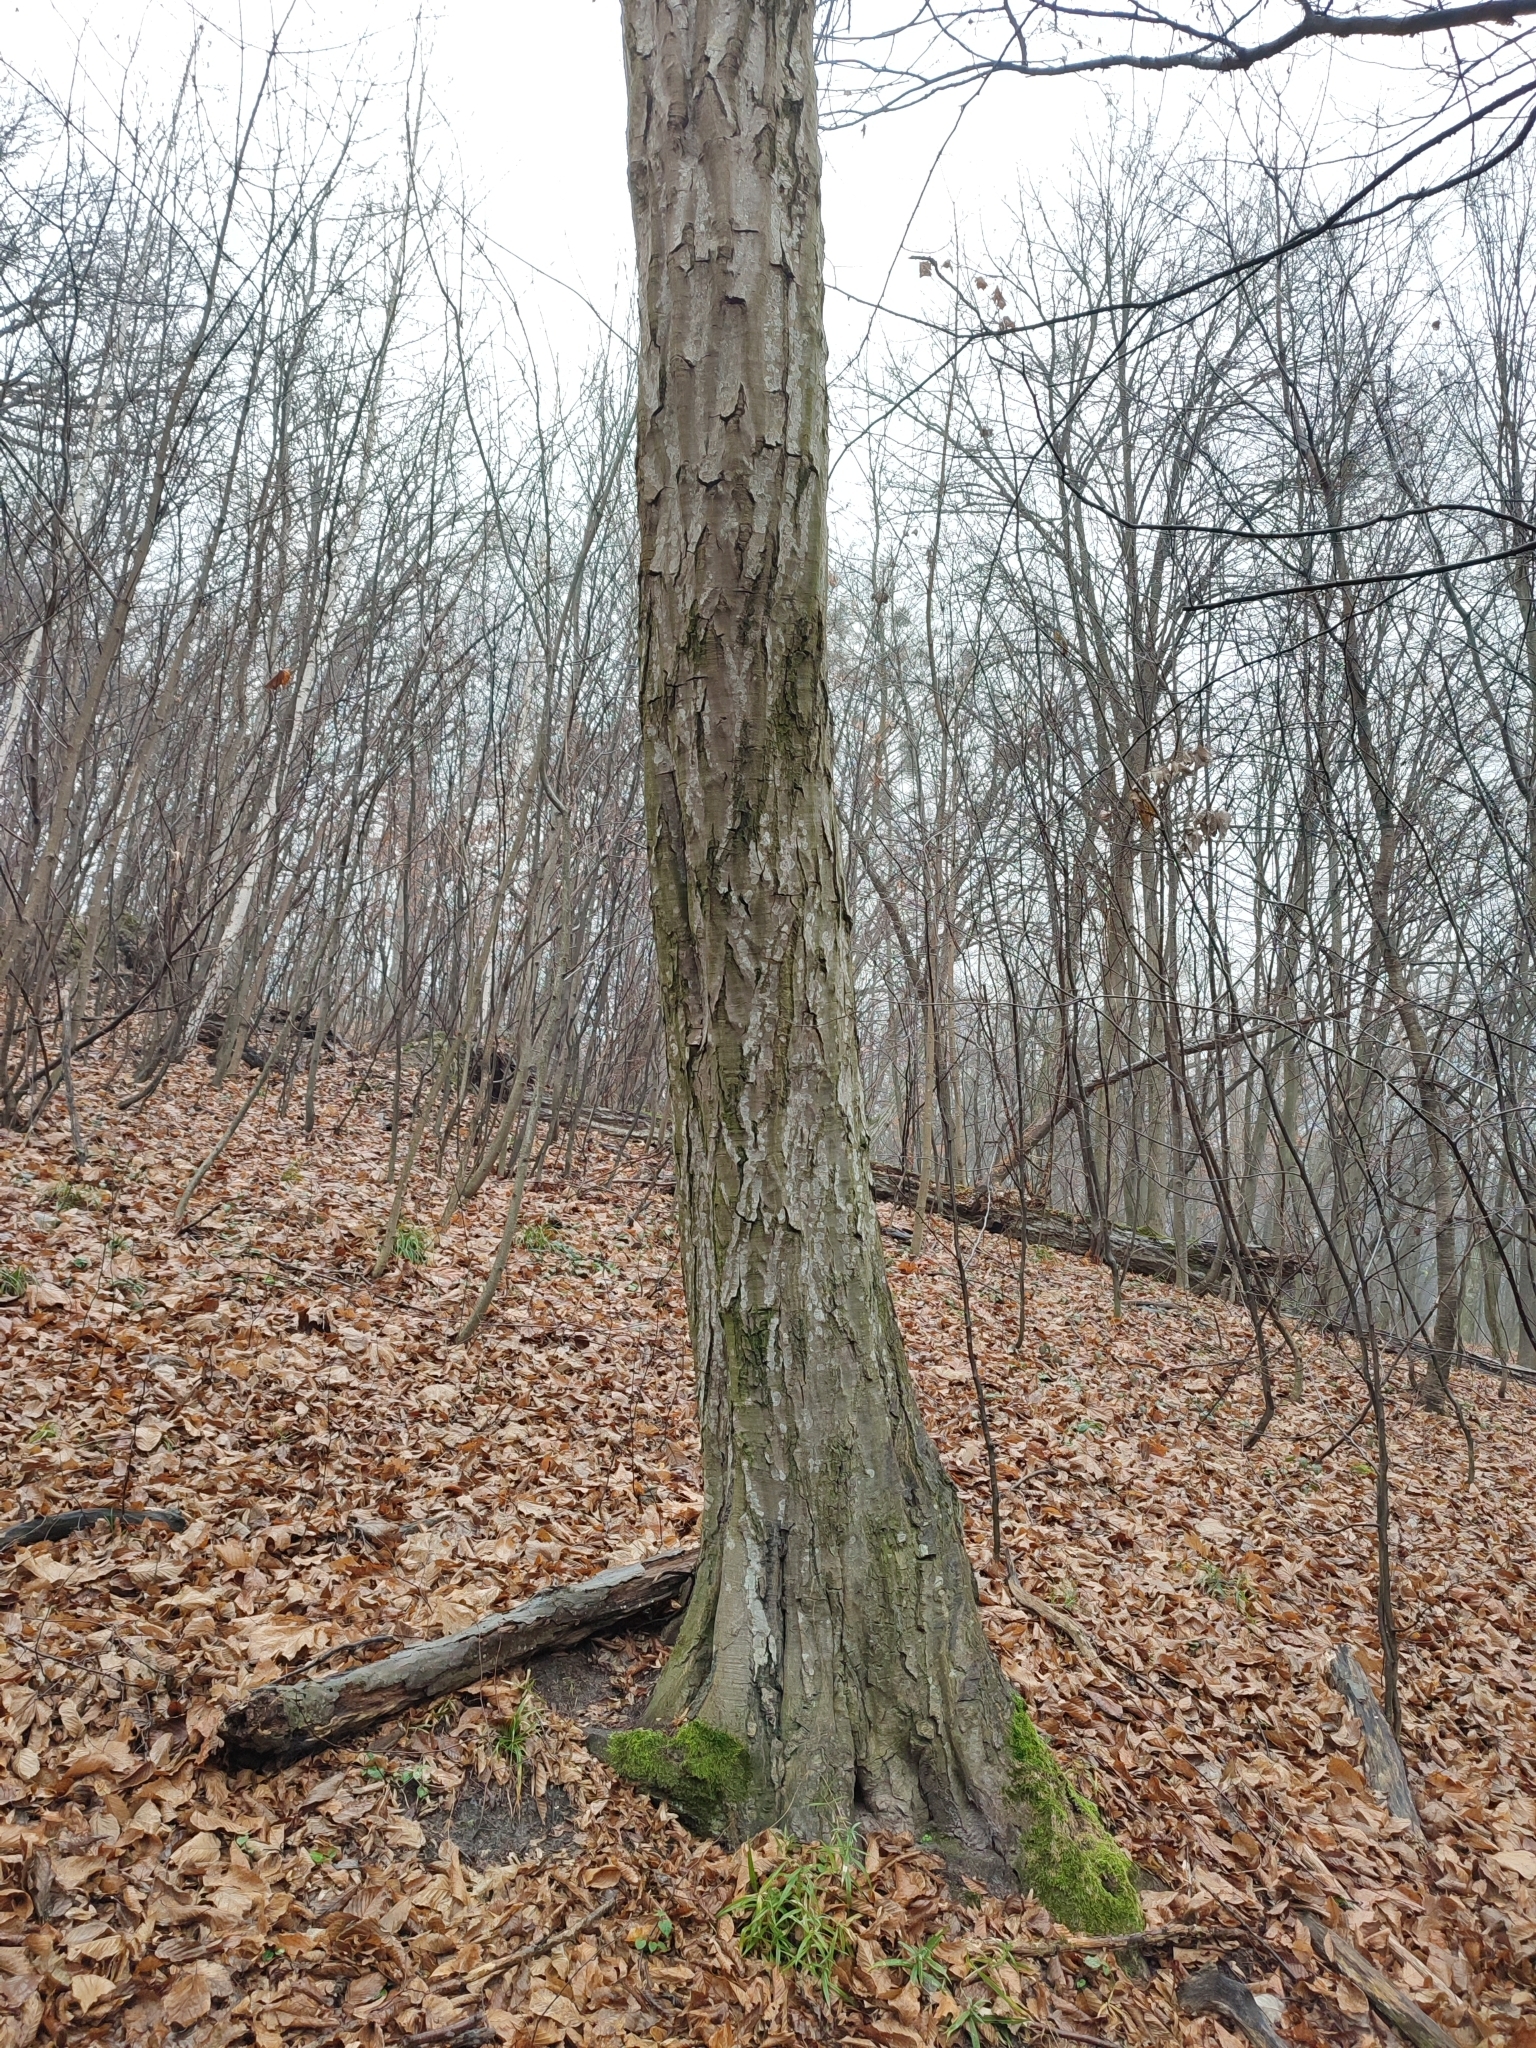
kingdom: Plantae
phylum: Tracheophyta
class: Magnoliopsida
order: Fagales
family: Betulaceae
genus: Carpinus
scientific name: Carpinus betulus
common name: Hornbeam
